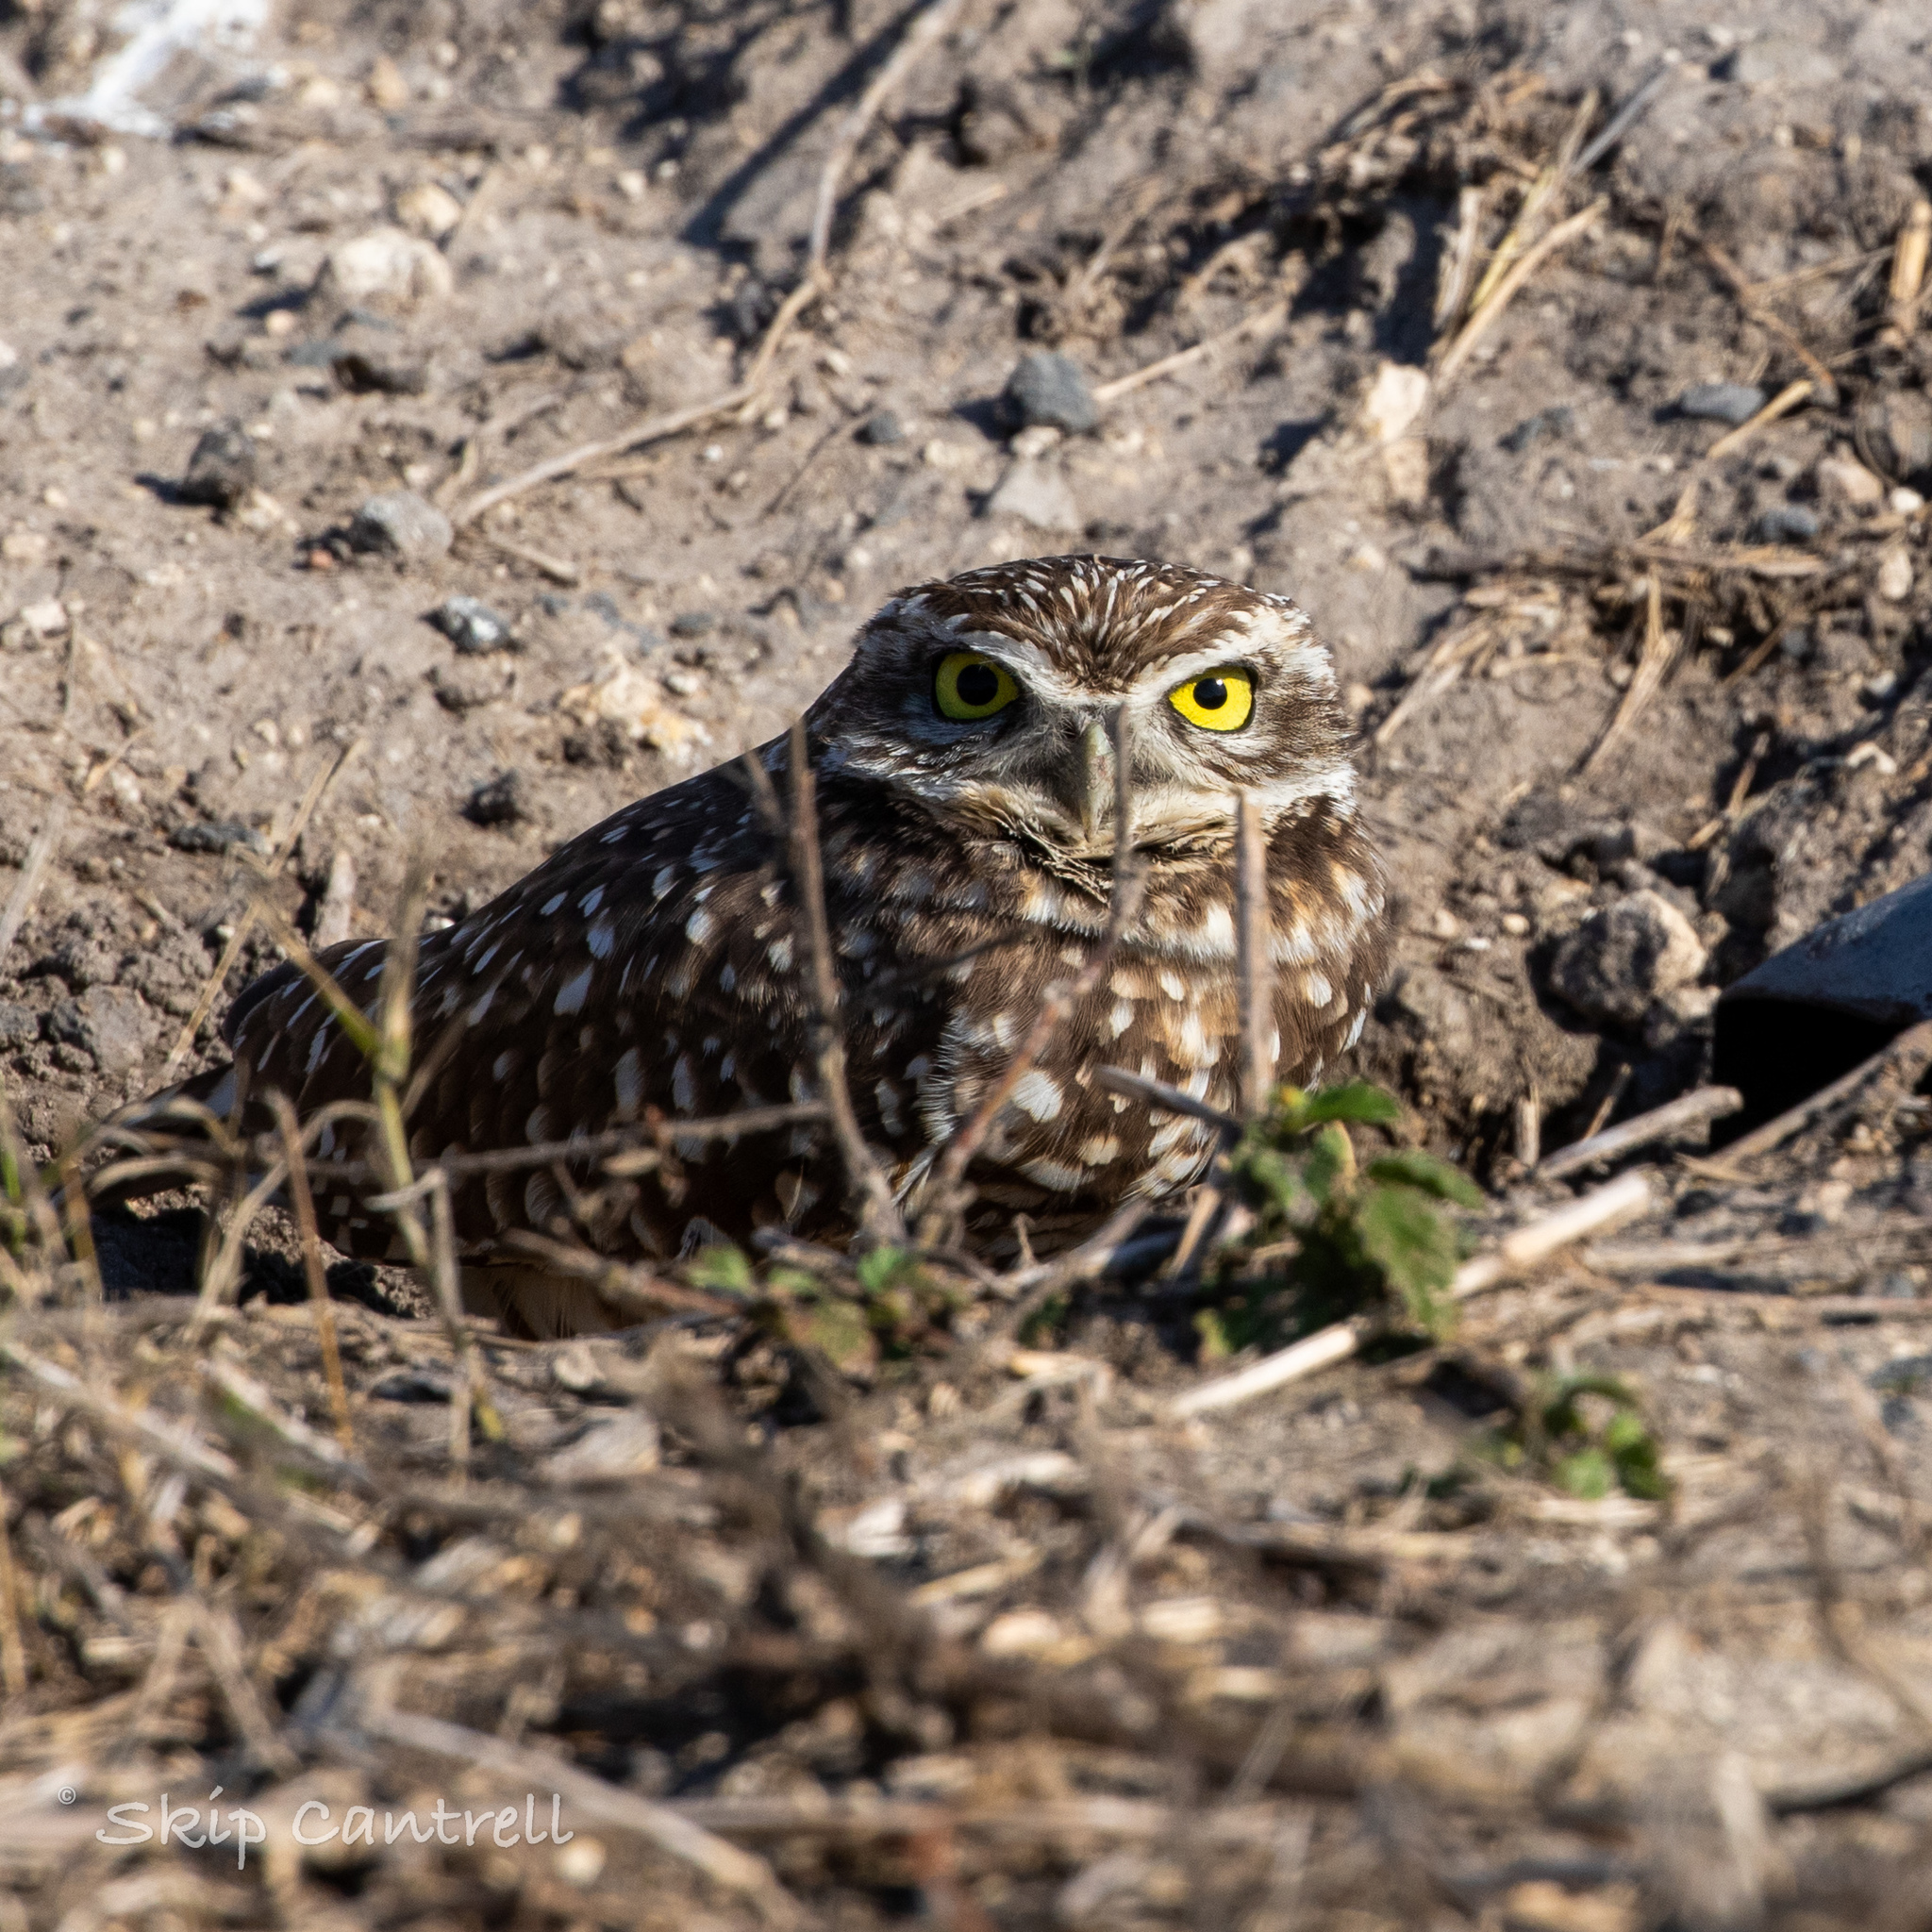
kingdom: Animalia
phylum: Chordata
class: Aves
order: Strigiformes
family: Strigidae
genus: Athene
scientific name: Athene cunicularia
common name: Burrowing owl
